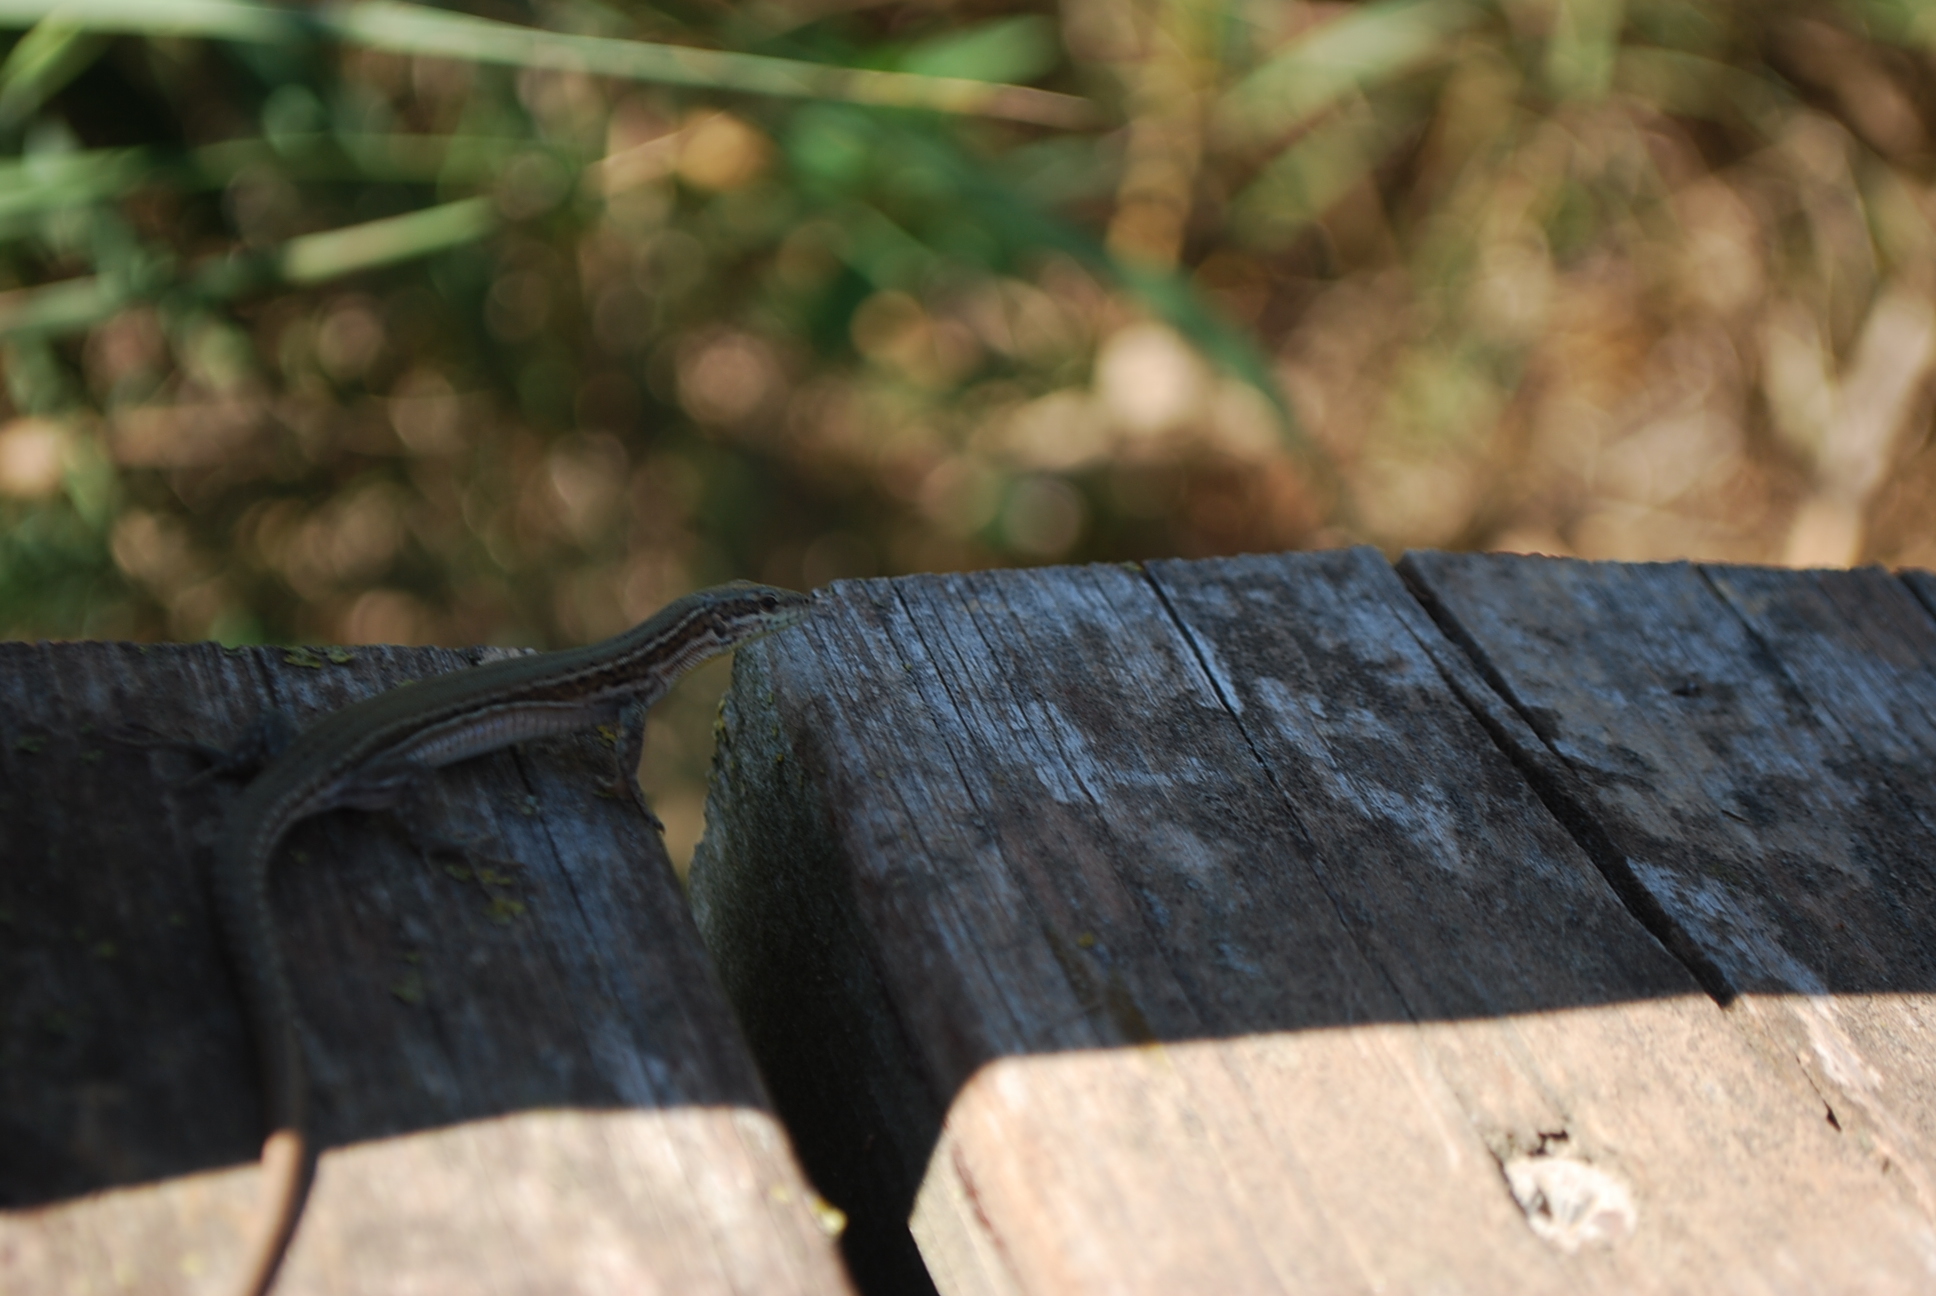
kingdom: Animalia
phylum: Chordata
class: Squamata
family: Lacertidae
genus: Podarcis
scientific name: Podarcis liolepis
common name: Catalonian wall lizard
